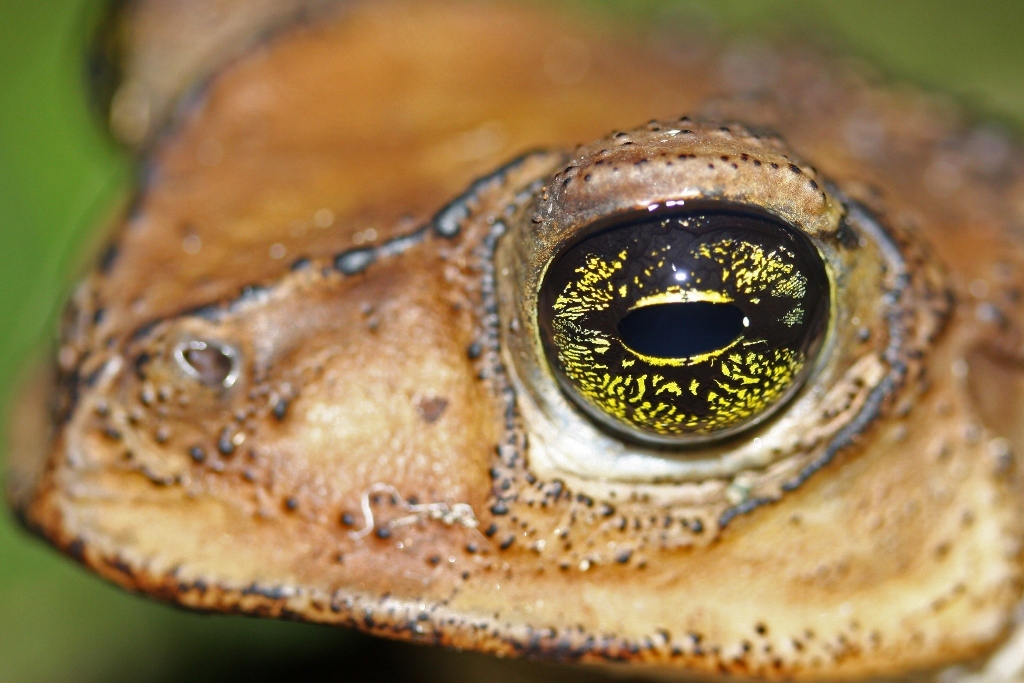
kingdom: Animalia
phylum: Chordata
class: Amphibia
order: Anura
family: Bufonidae
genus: Peltophryne
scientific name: Peltophryne taladai
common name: Cuban spotted toad
